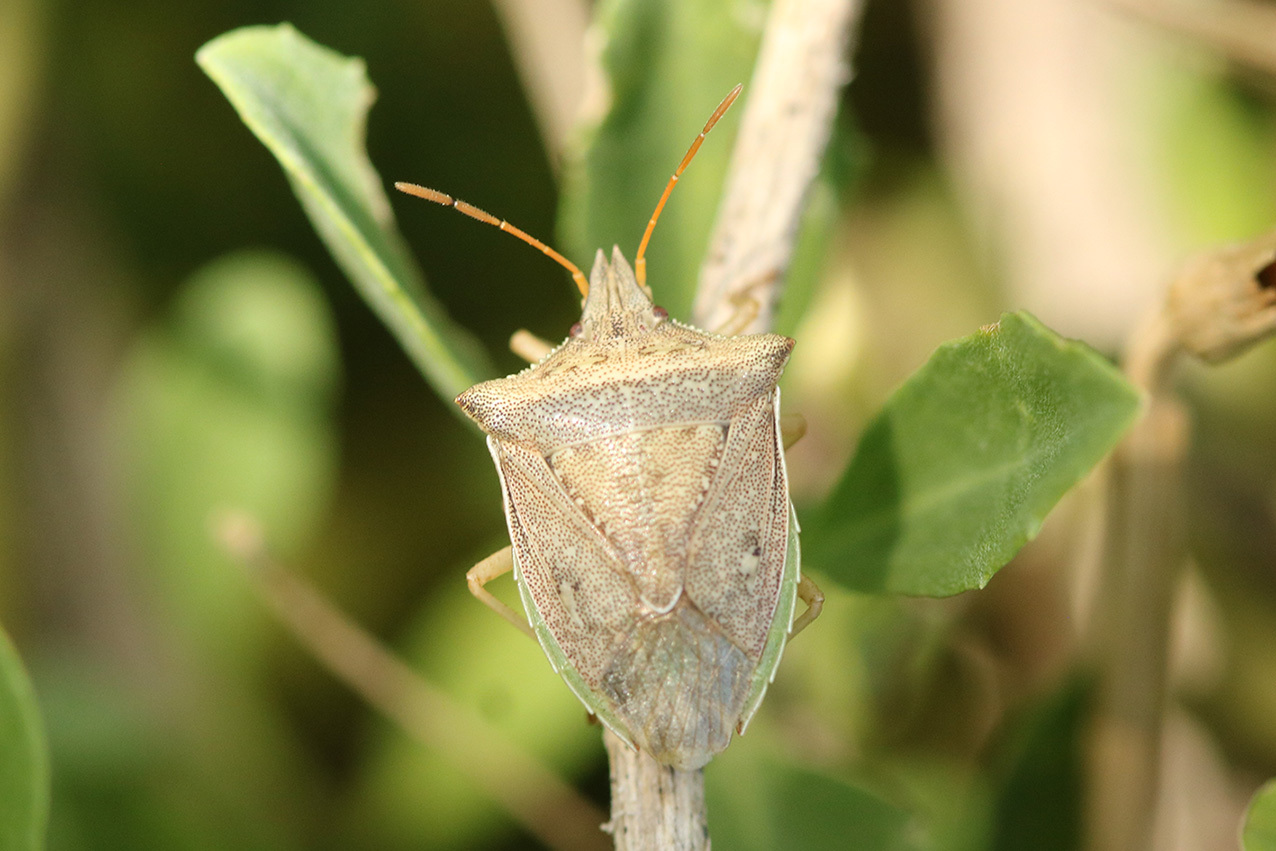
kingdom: Animalia
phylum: Arthropoda
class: Insecta
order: Hemiptera
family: Pentatomidae
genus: Diceraeus
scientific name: Diceraeus furcatus
